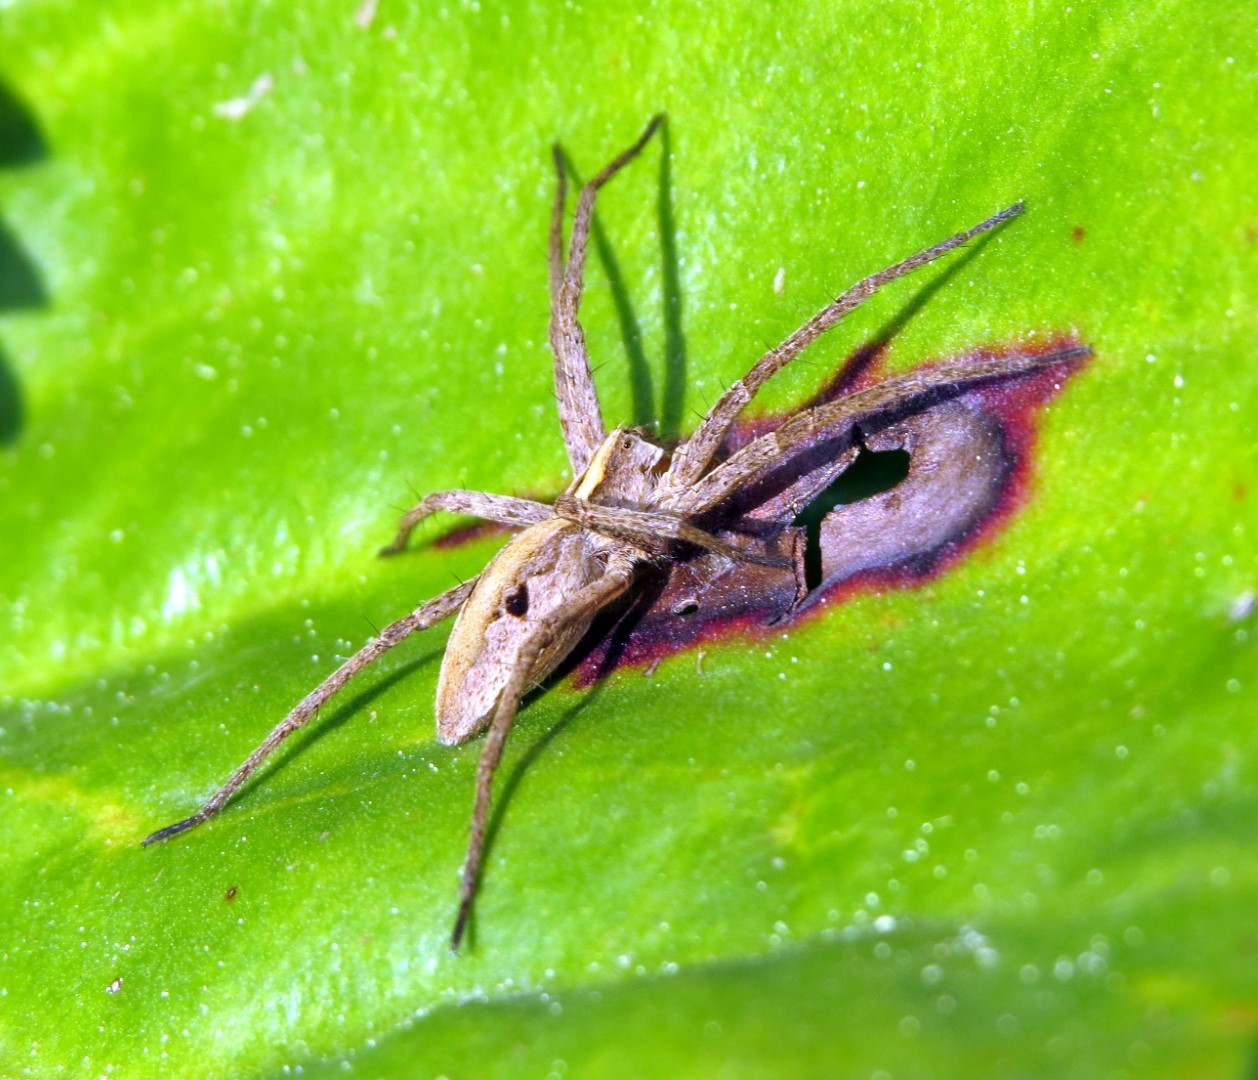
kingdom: Animalia
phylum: Arthropoda
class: Arachnida
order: Araneae
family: Pisauridae
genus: Pisaura
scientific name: Pisaura mirabilis
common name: Tent spider
